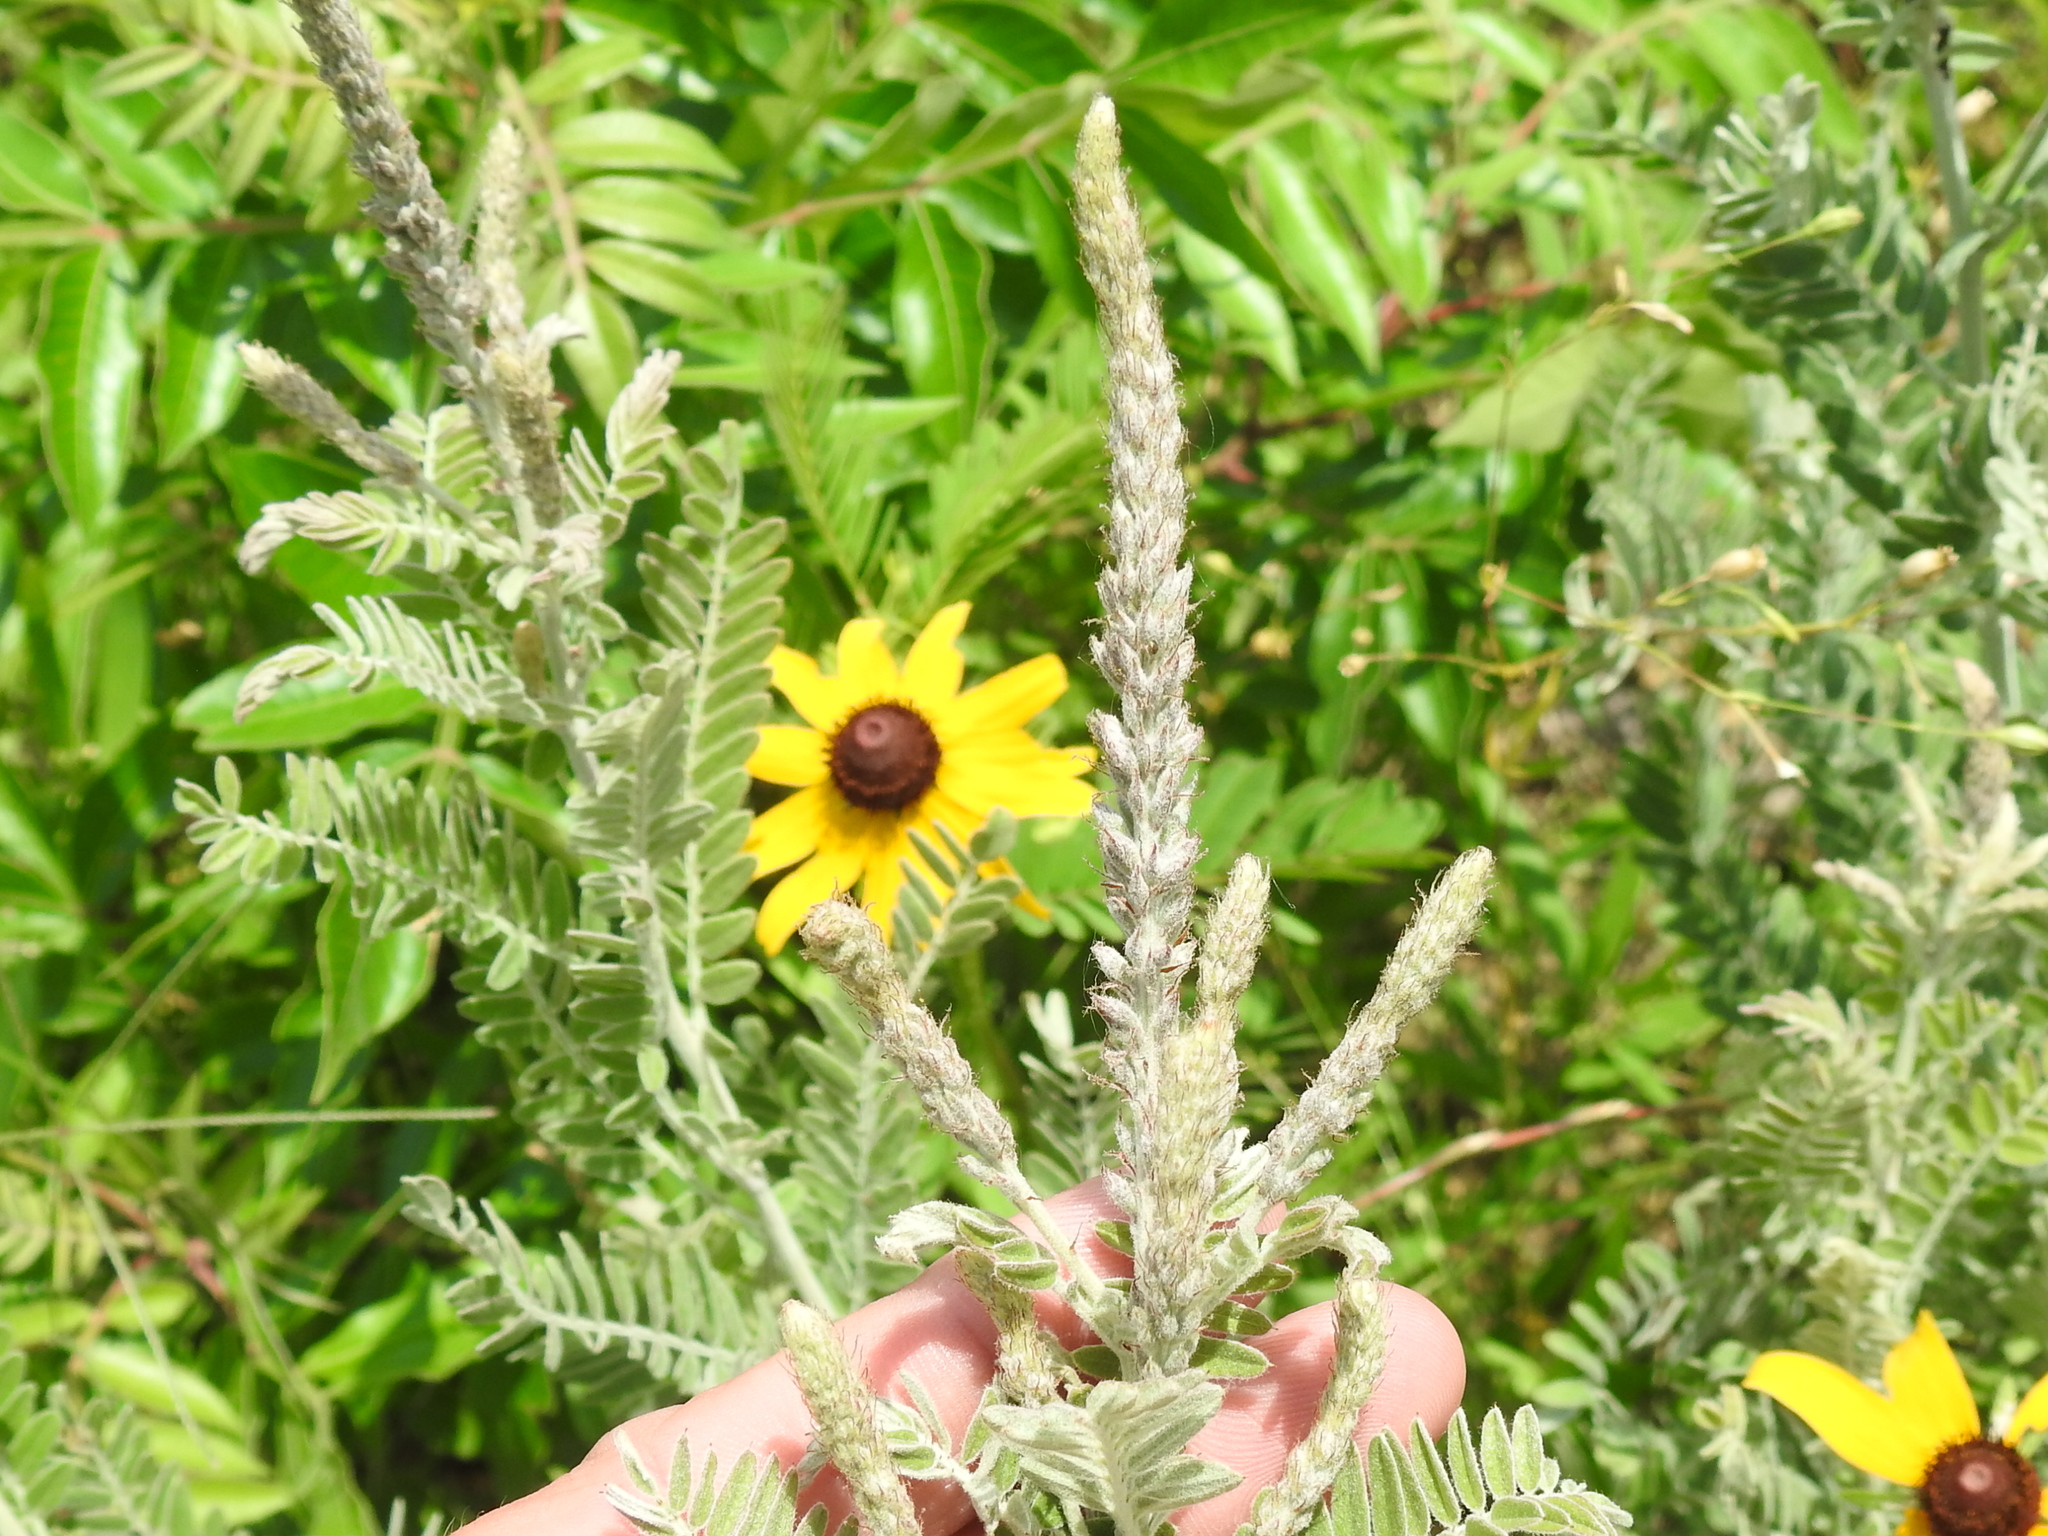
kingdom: Plantae
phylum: Tracheophyta
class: Magnoliopsida
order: Fabales
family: Fabaceae
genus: Amorpha
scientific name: Amorpha canescens
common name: Leadplant
